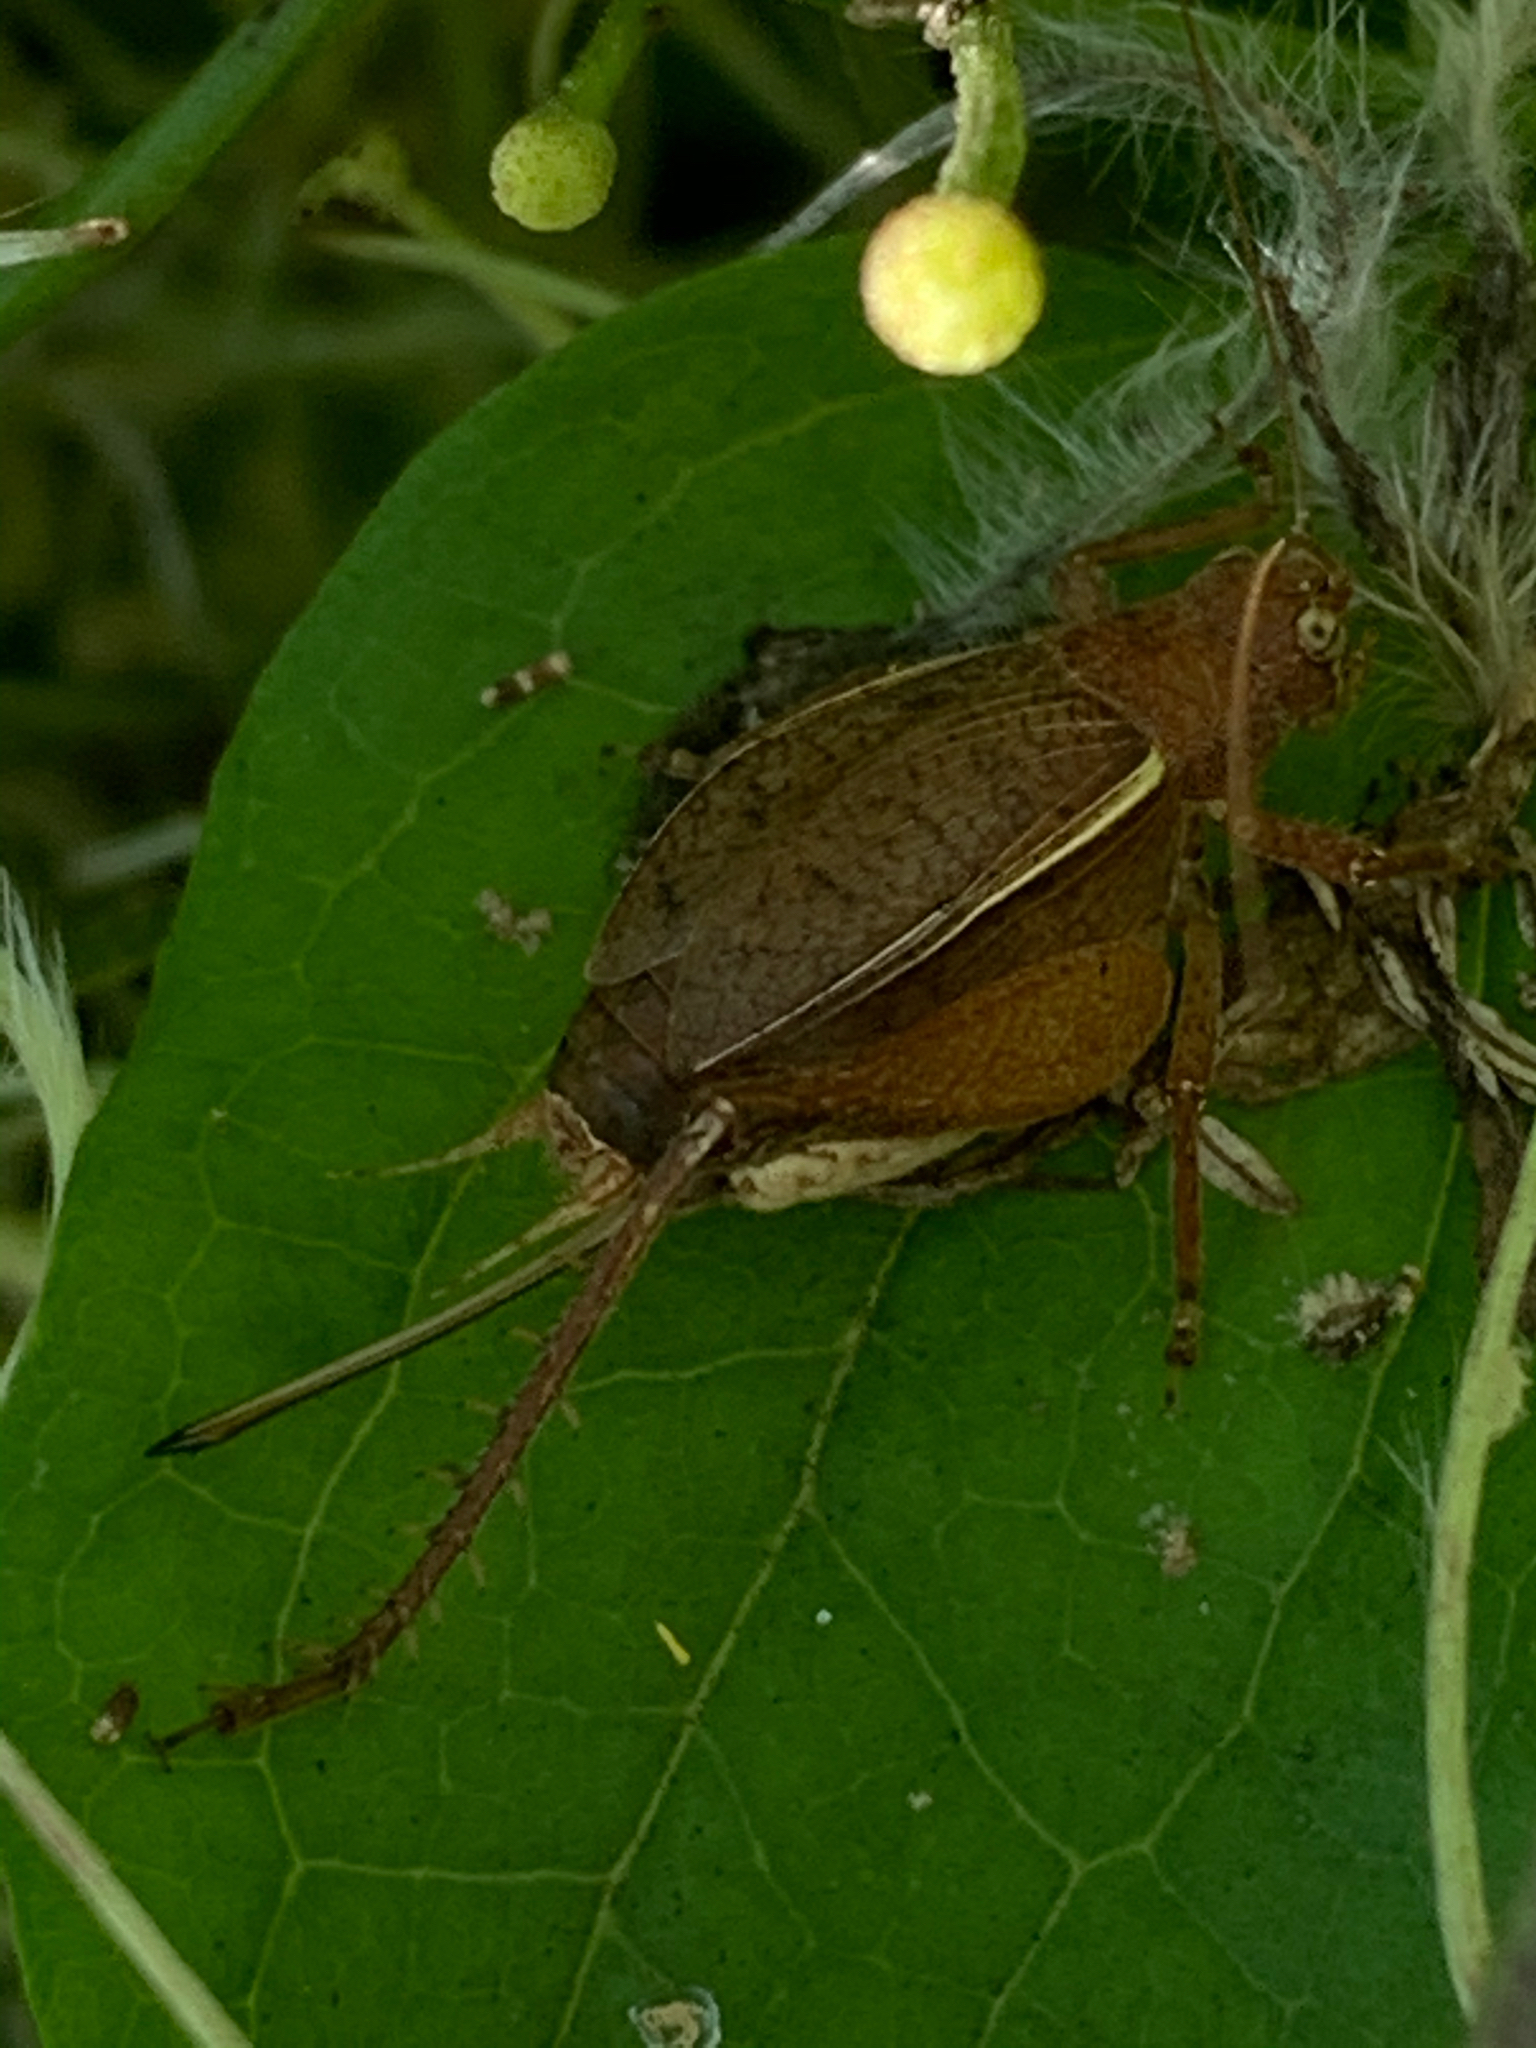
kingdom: Animalia
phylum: Arthropoda
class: Insecta
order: Orthoptera
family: Gryllidae
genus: Hapithus
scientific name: Hapithus agitator
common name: Restless bush cricket
